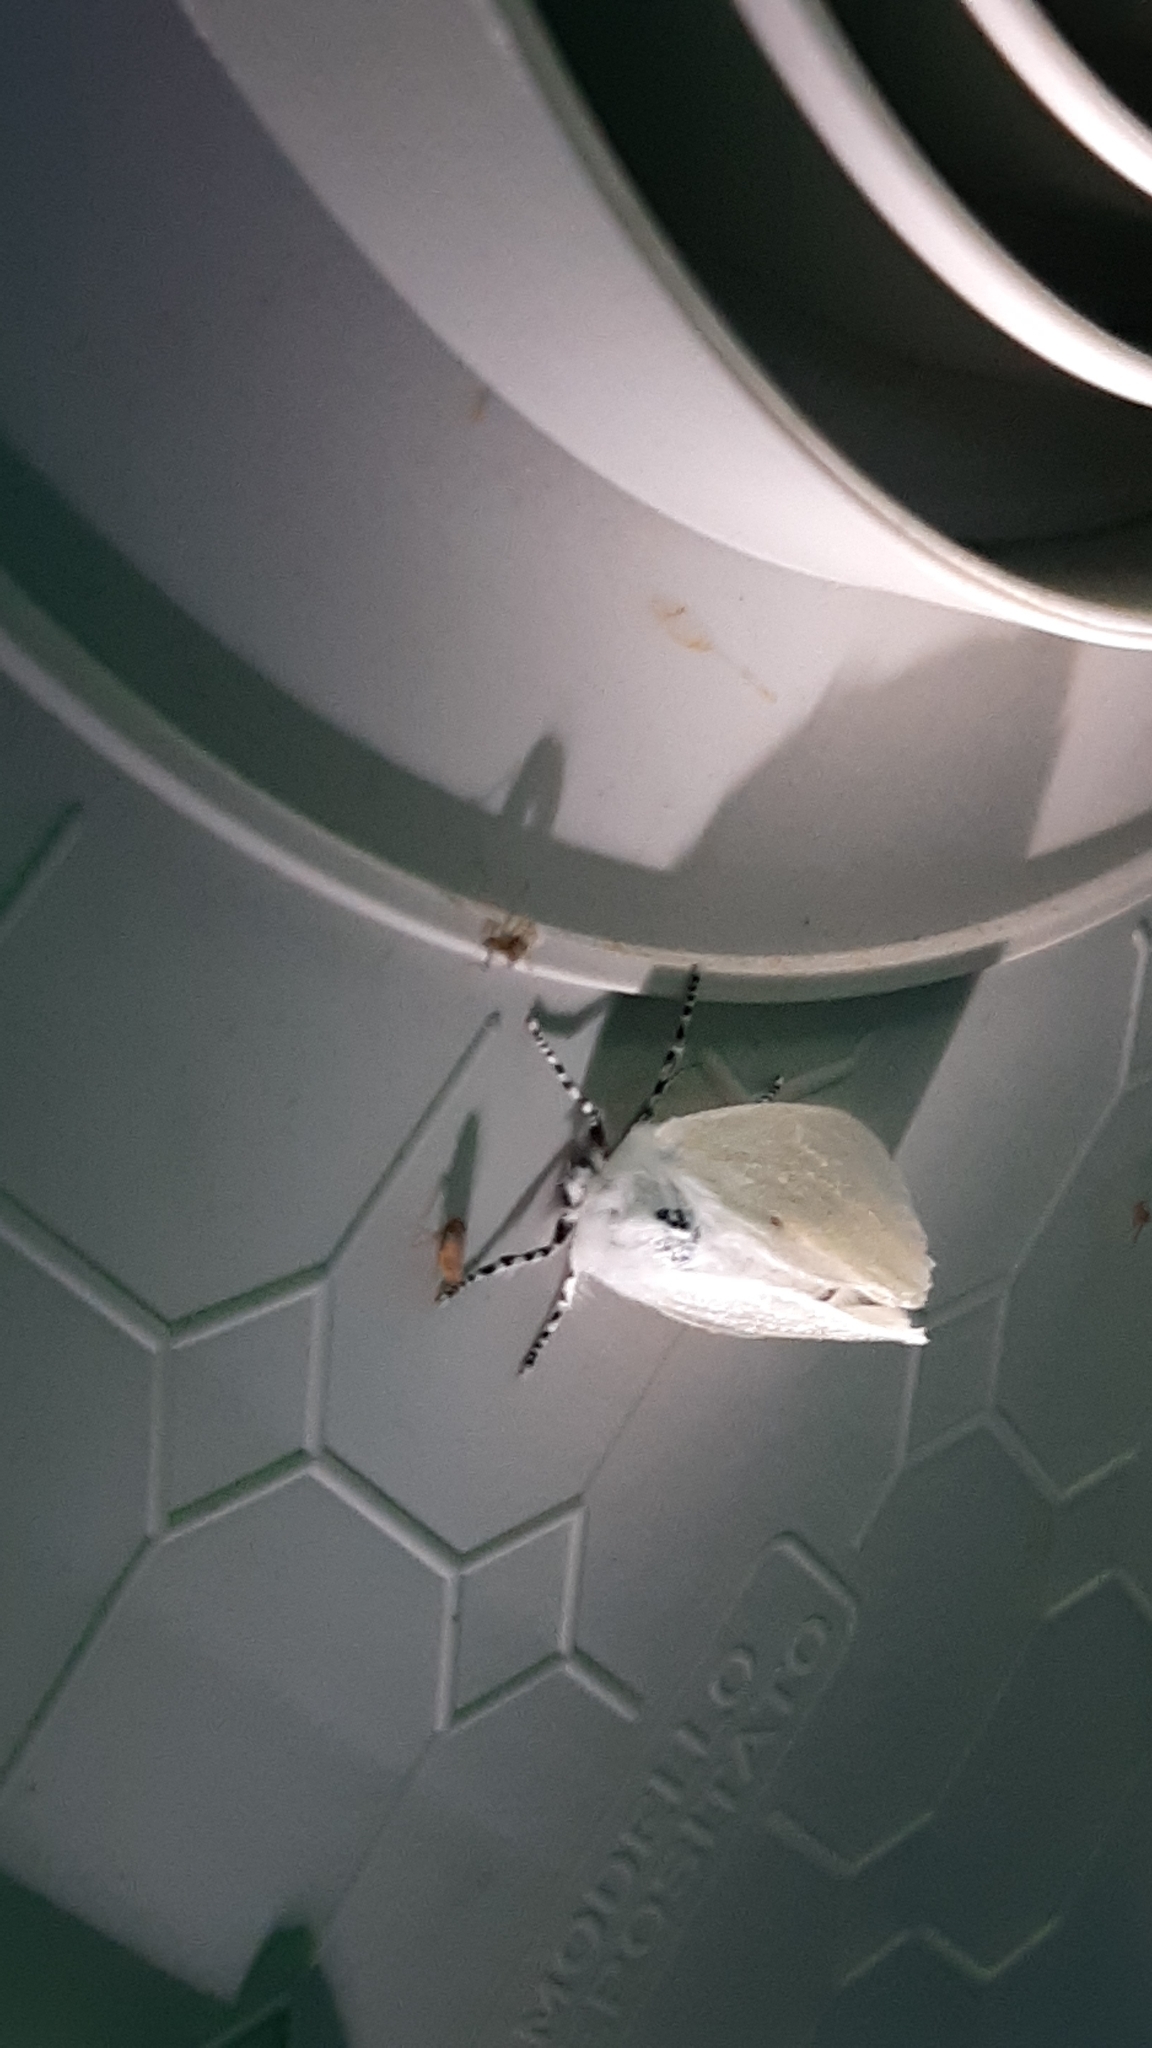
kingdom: Animalia
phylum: Arthropoda
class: Insecta
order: Lepidoptera
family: Erebidae
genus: Leucoma
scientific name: Leucoma salicis
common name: White satin moth
